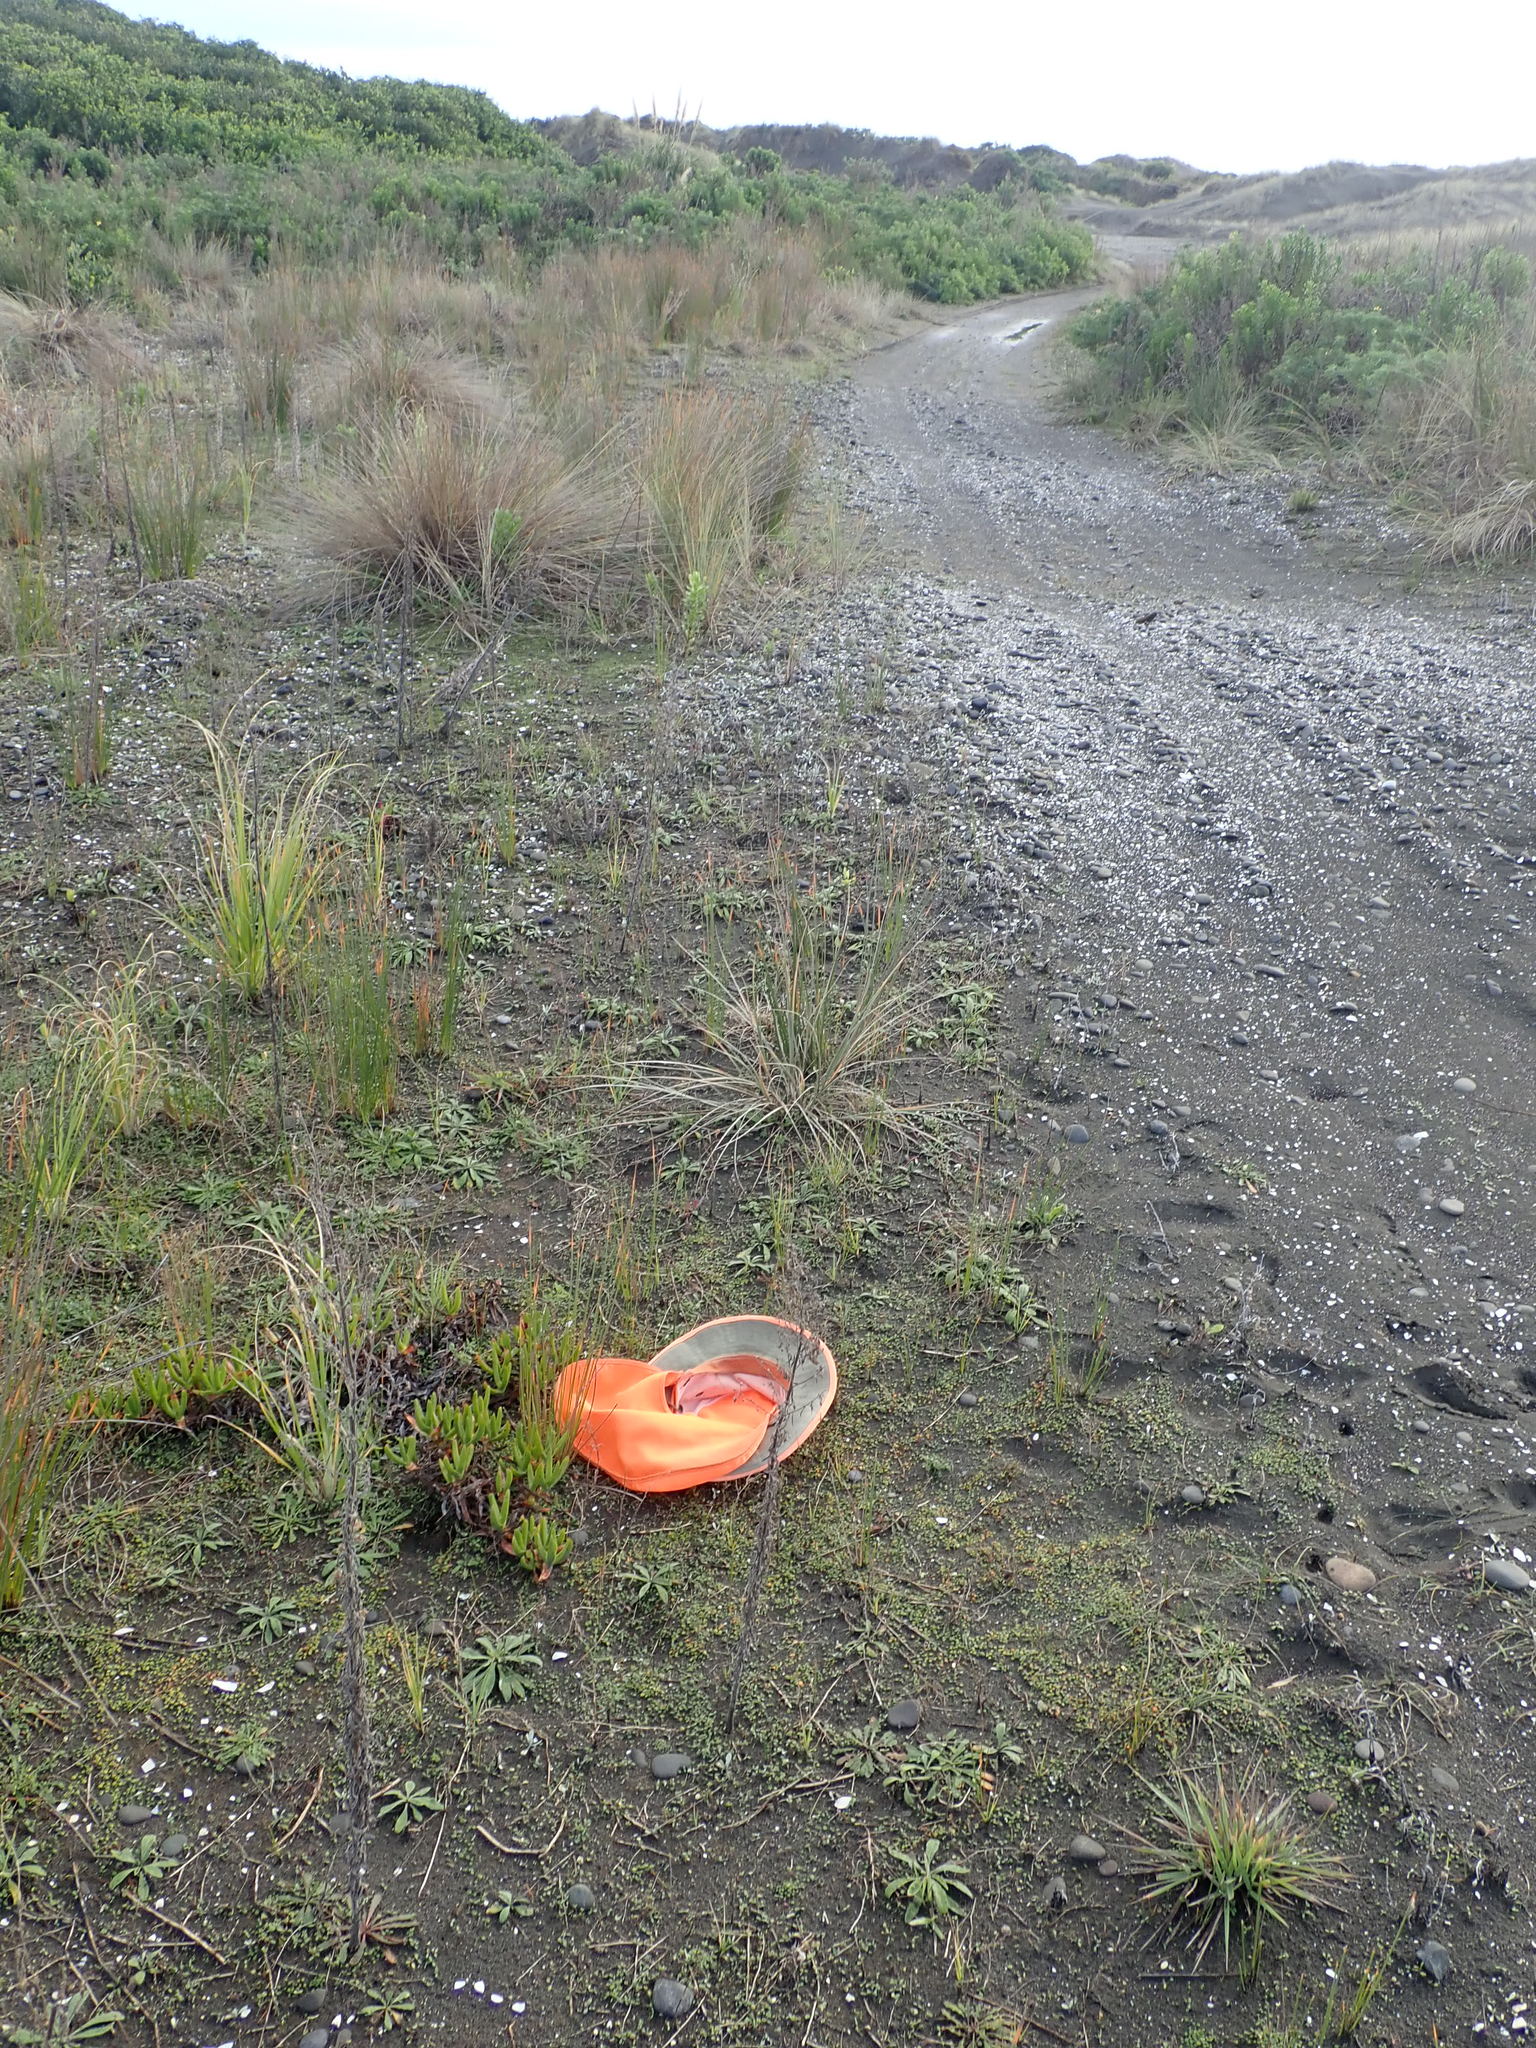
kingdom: Plantae
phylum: Tracheophyta
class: Magnoliopsida
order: Asterales
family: Goodeniaceae
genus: Goodenia
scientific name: Goodenia heenanii
